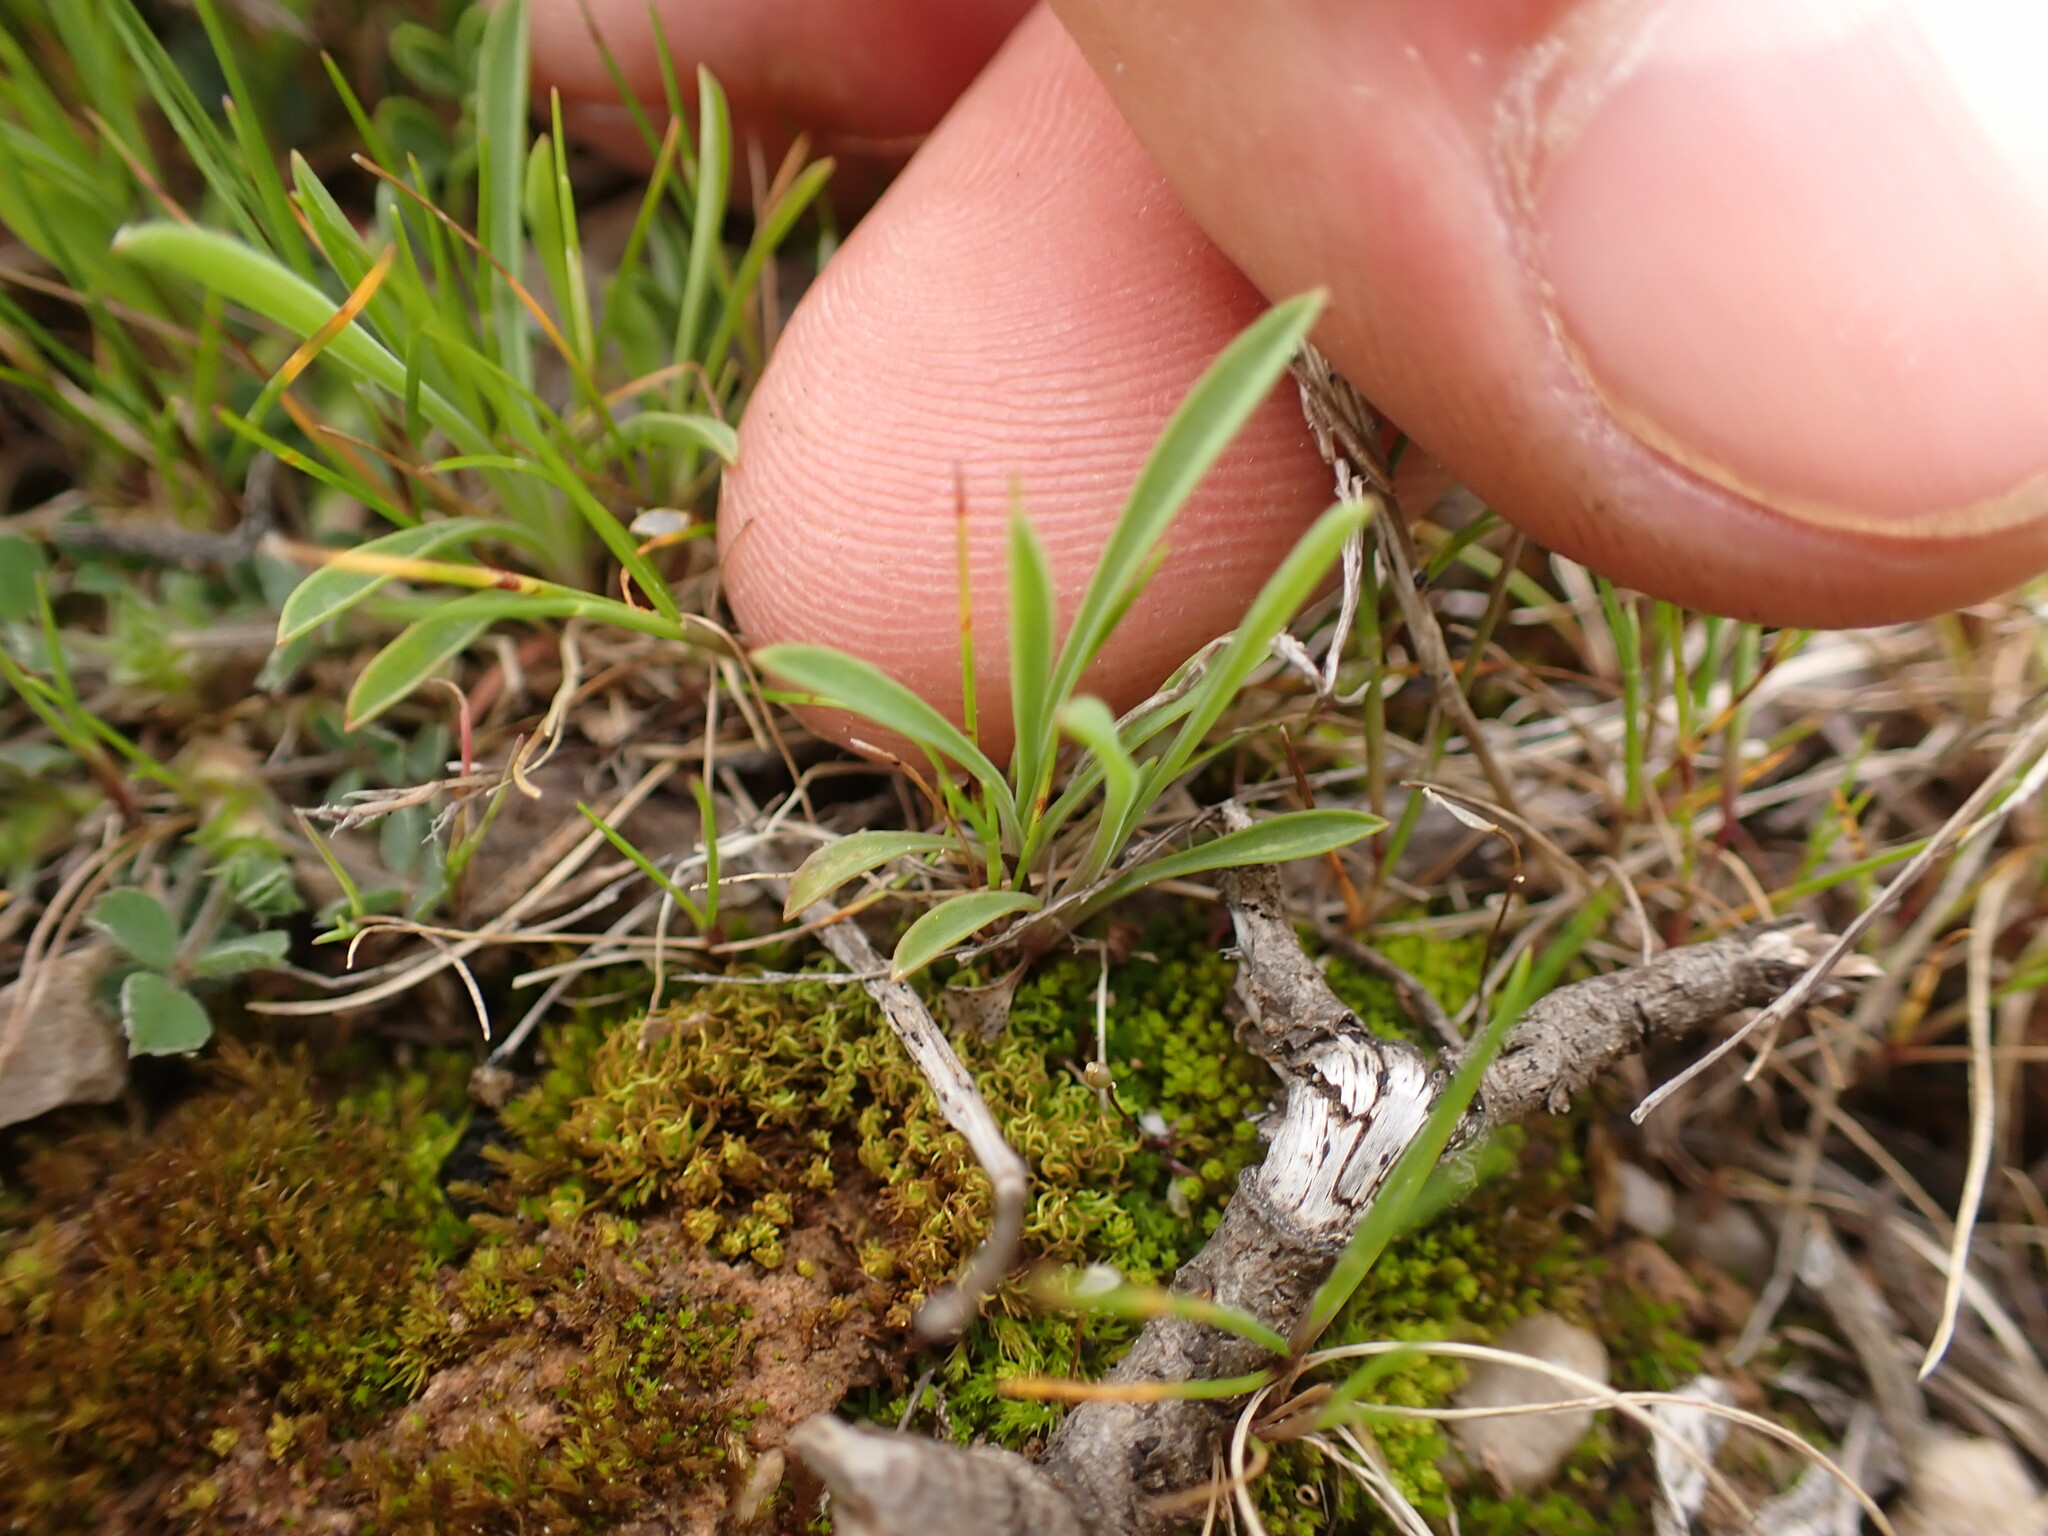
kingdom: Plantae
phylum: Tracheophyta
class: Magnoliopsida
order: Apiales
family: Apiaceae
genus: Bupleurum
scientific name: Bupleurum baldense
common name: Small hare's-ear
